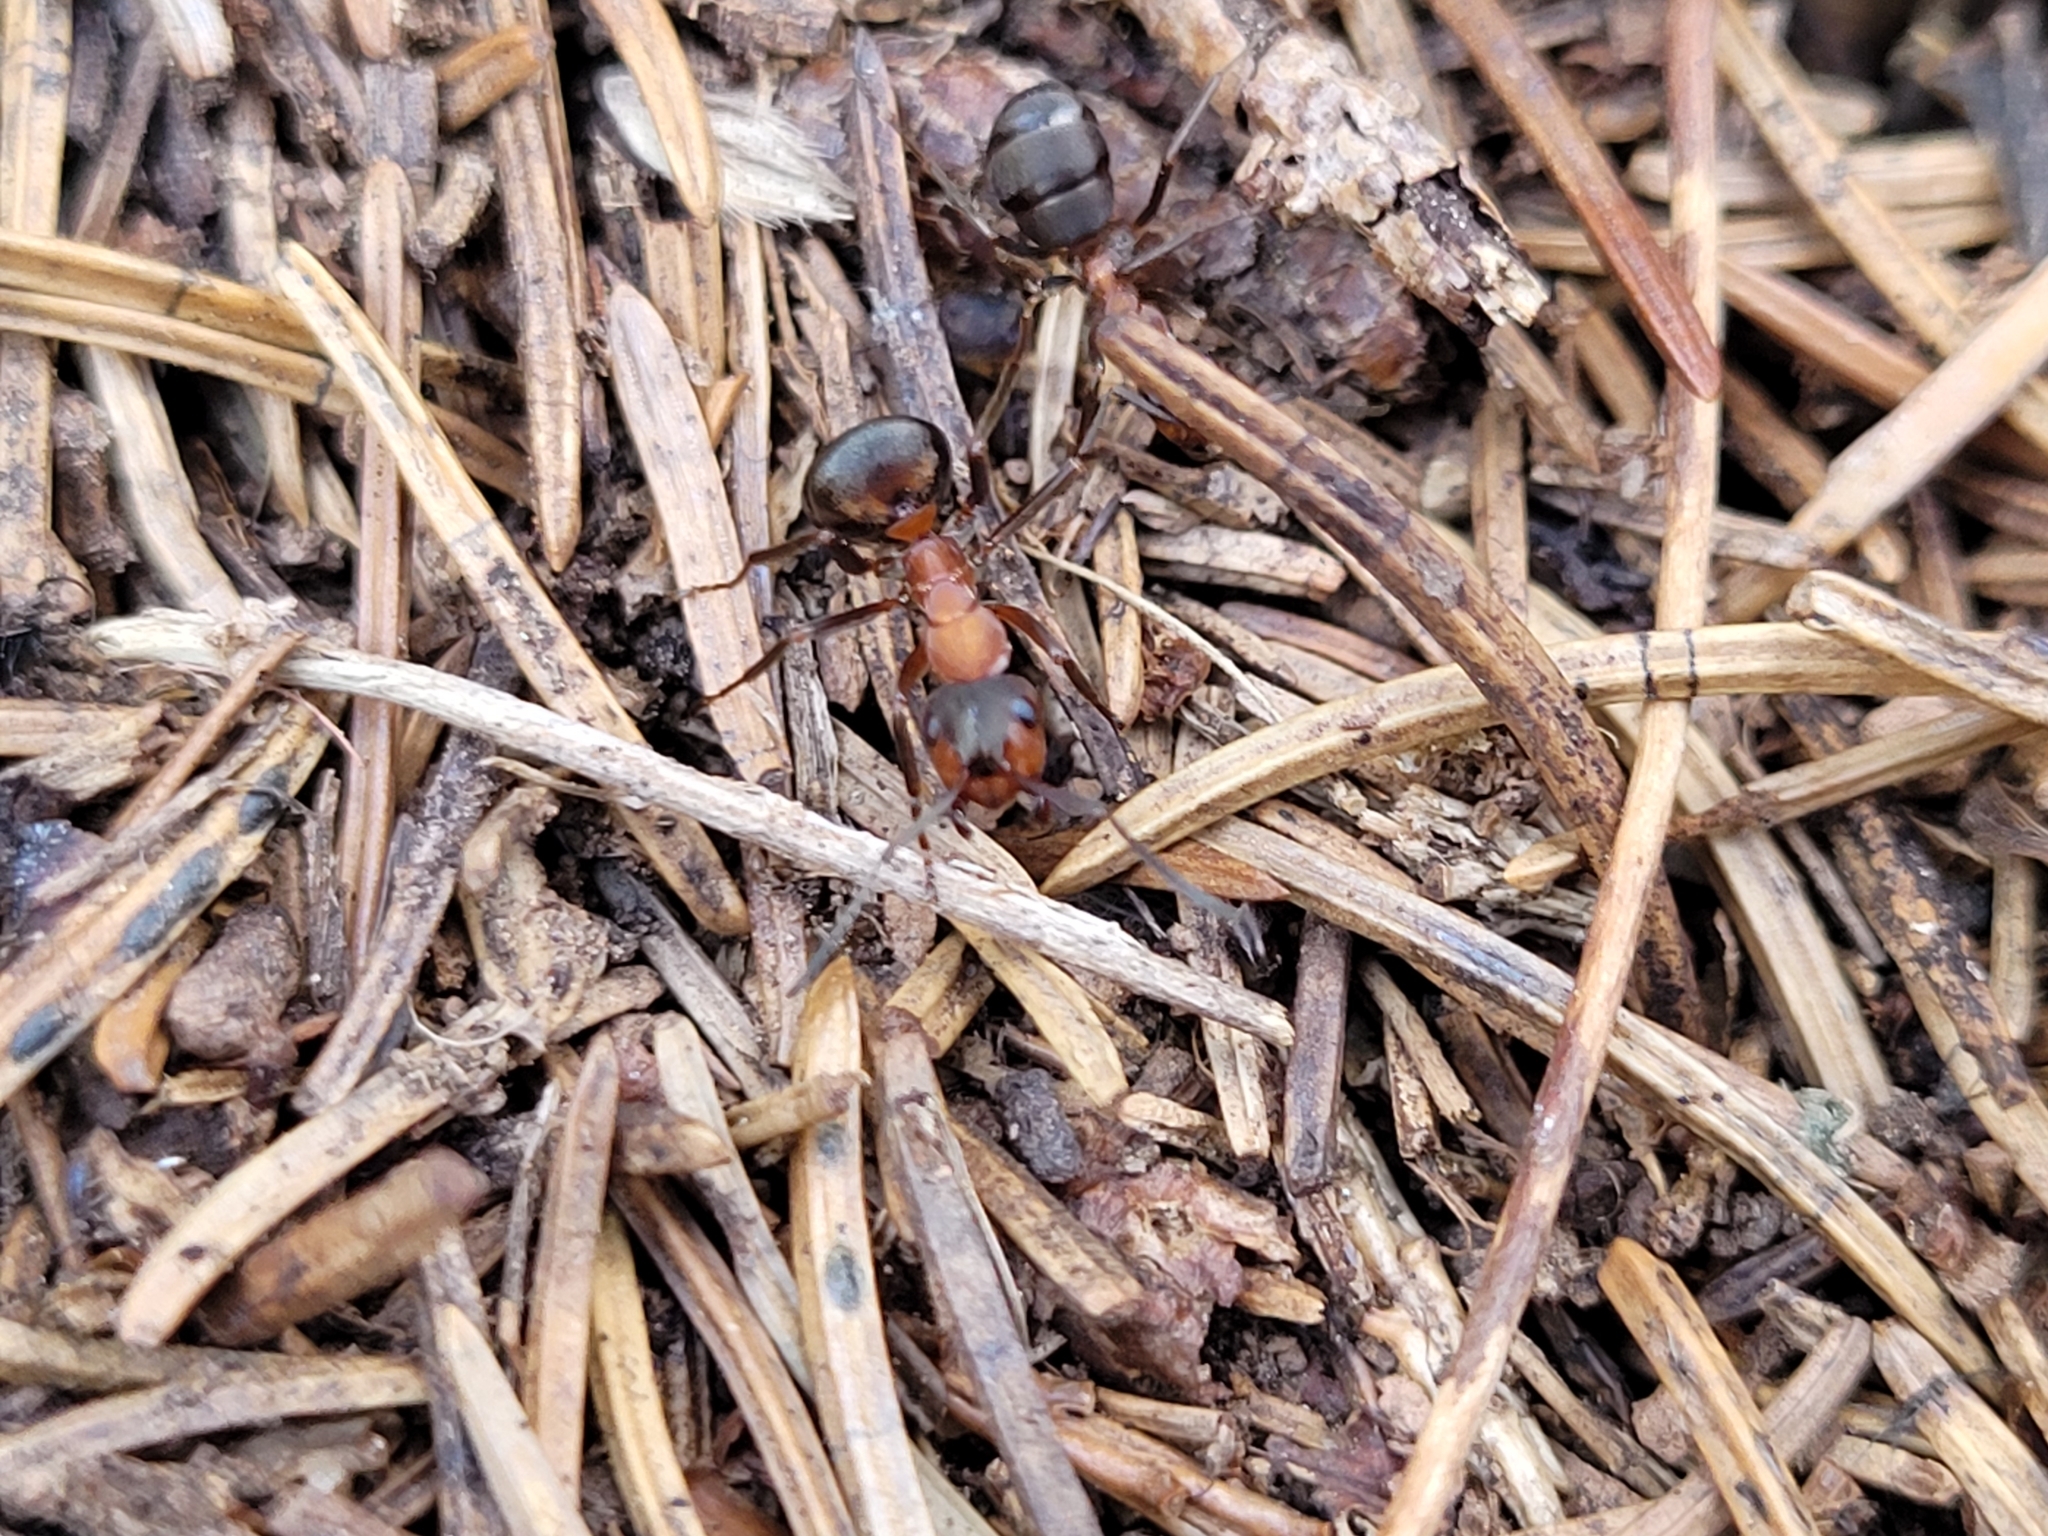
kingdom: Animalia
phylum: Arthropoda
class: Insecta
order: Hymenoptera
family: Formicidae
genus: Formica
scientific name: Formica
